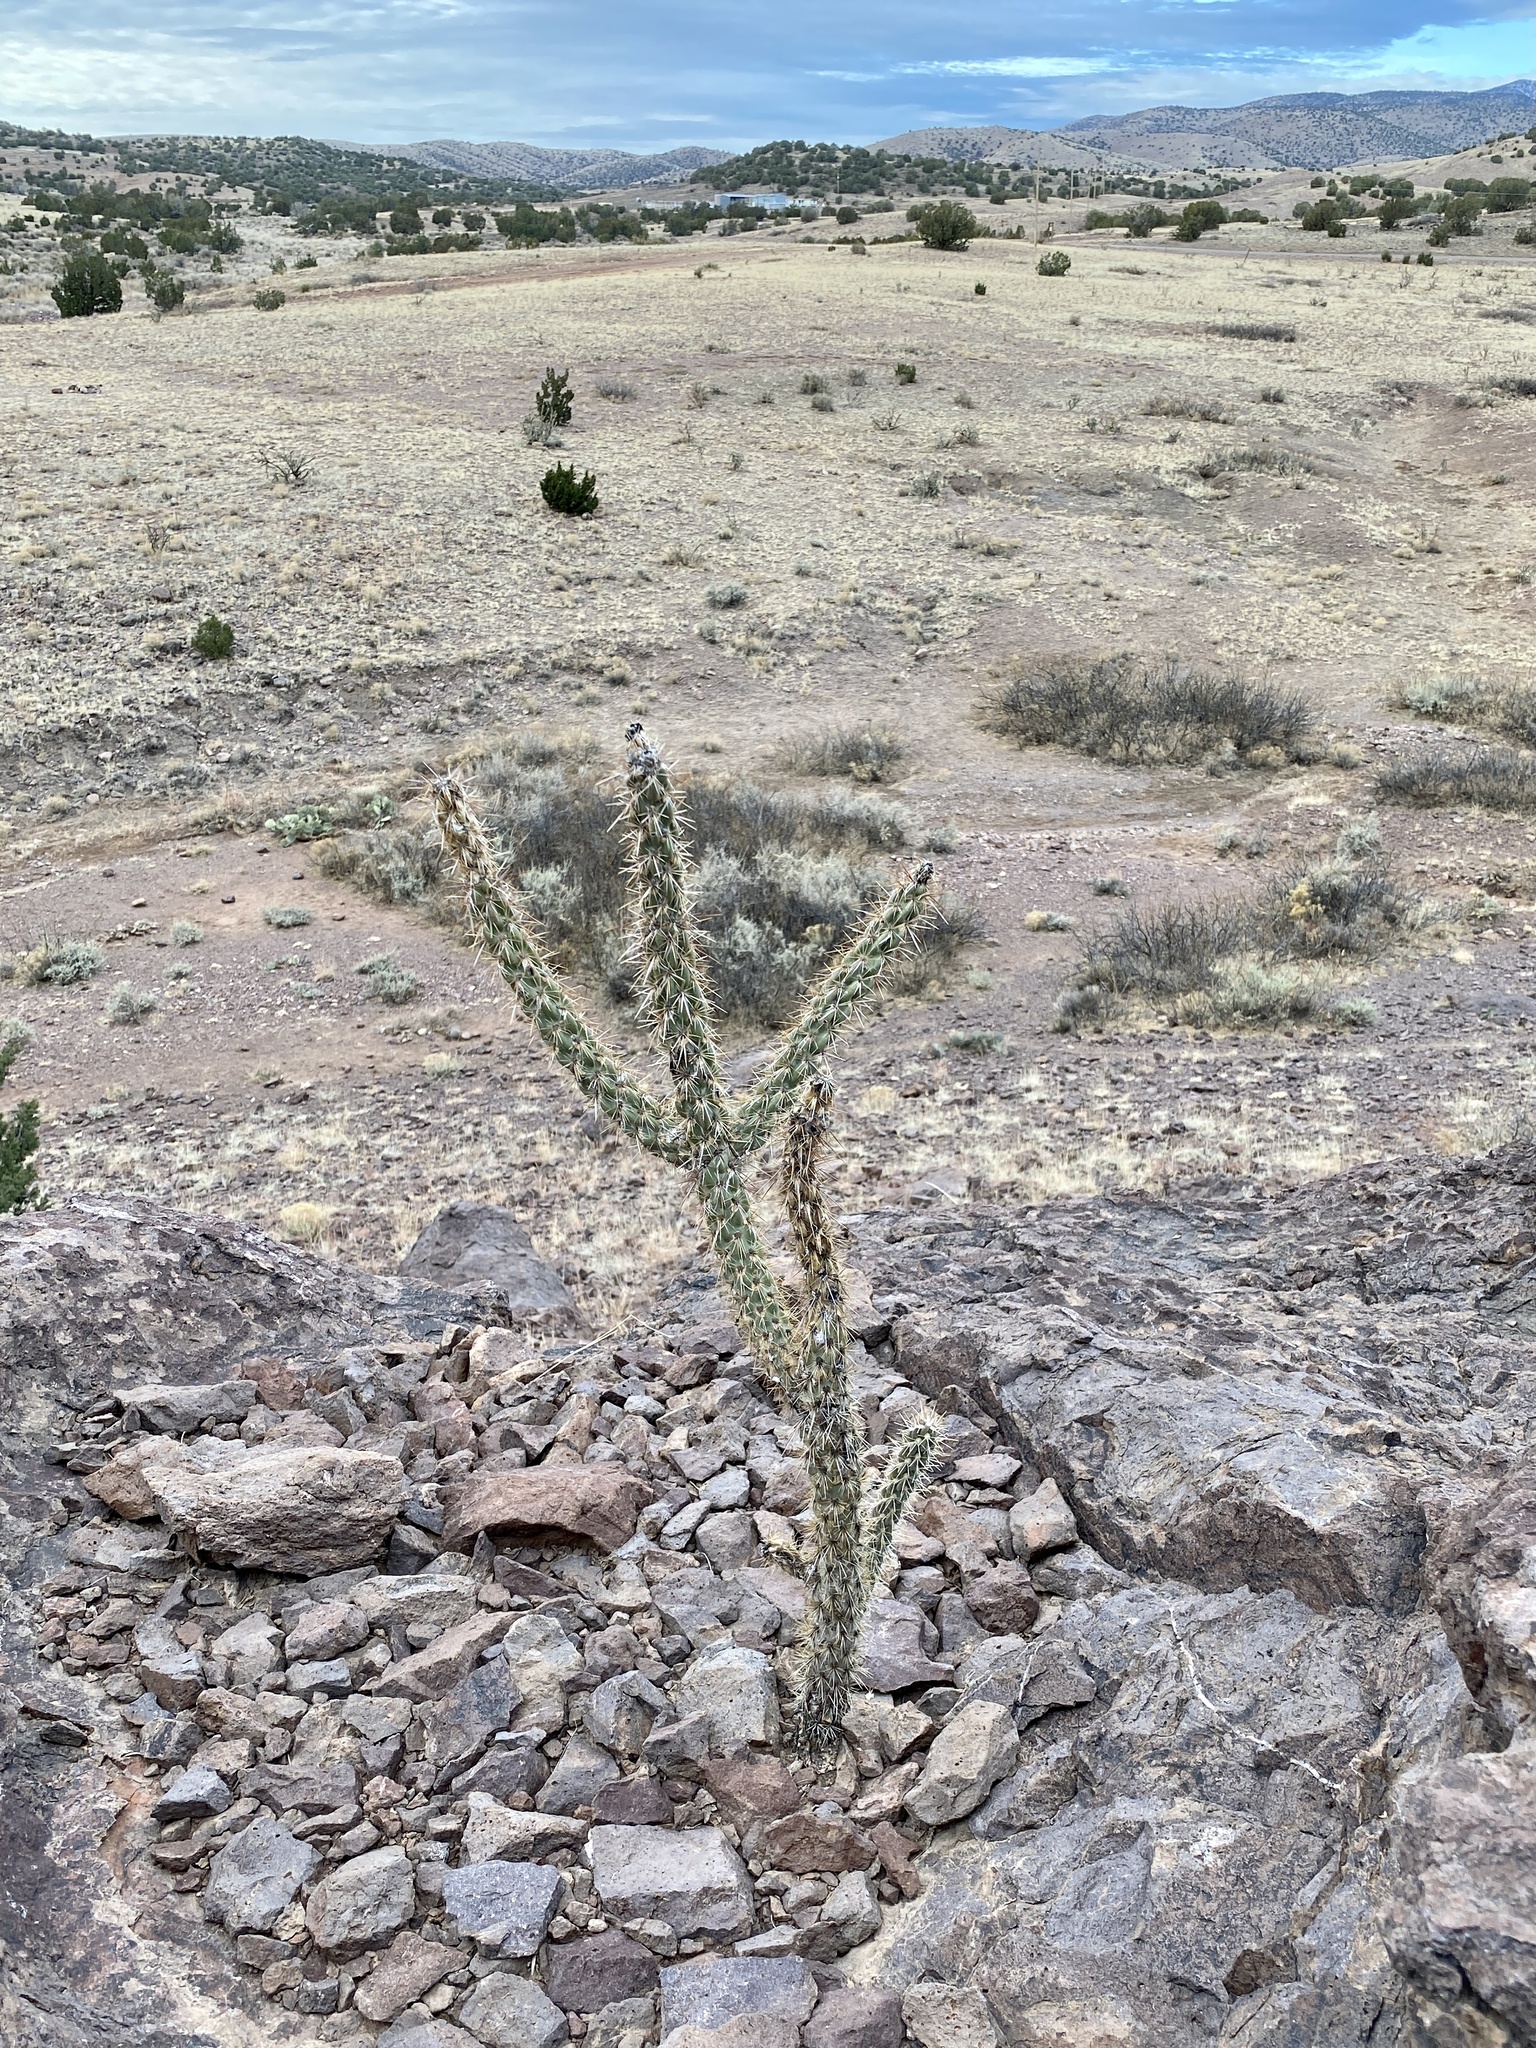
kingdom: Plantae
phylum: Tracheophyta
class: Magnoliopsida
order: Caryophyllales
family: Cactaceae
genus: Cylindropuntia
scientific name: Cylindropuntia imbricata
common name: Candelabrum cactus
